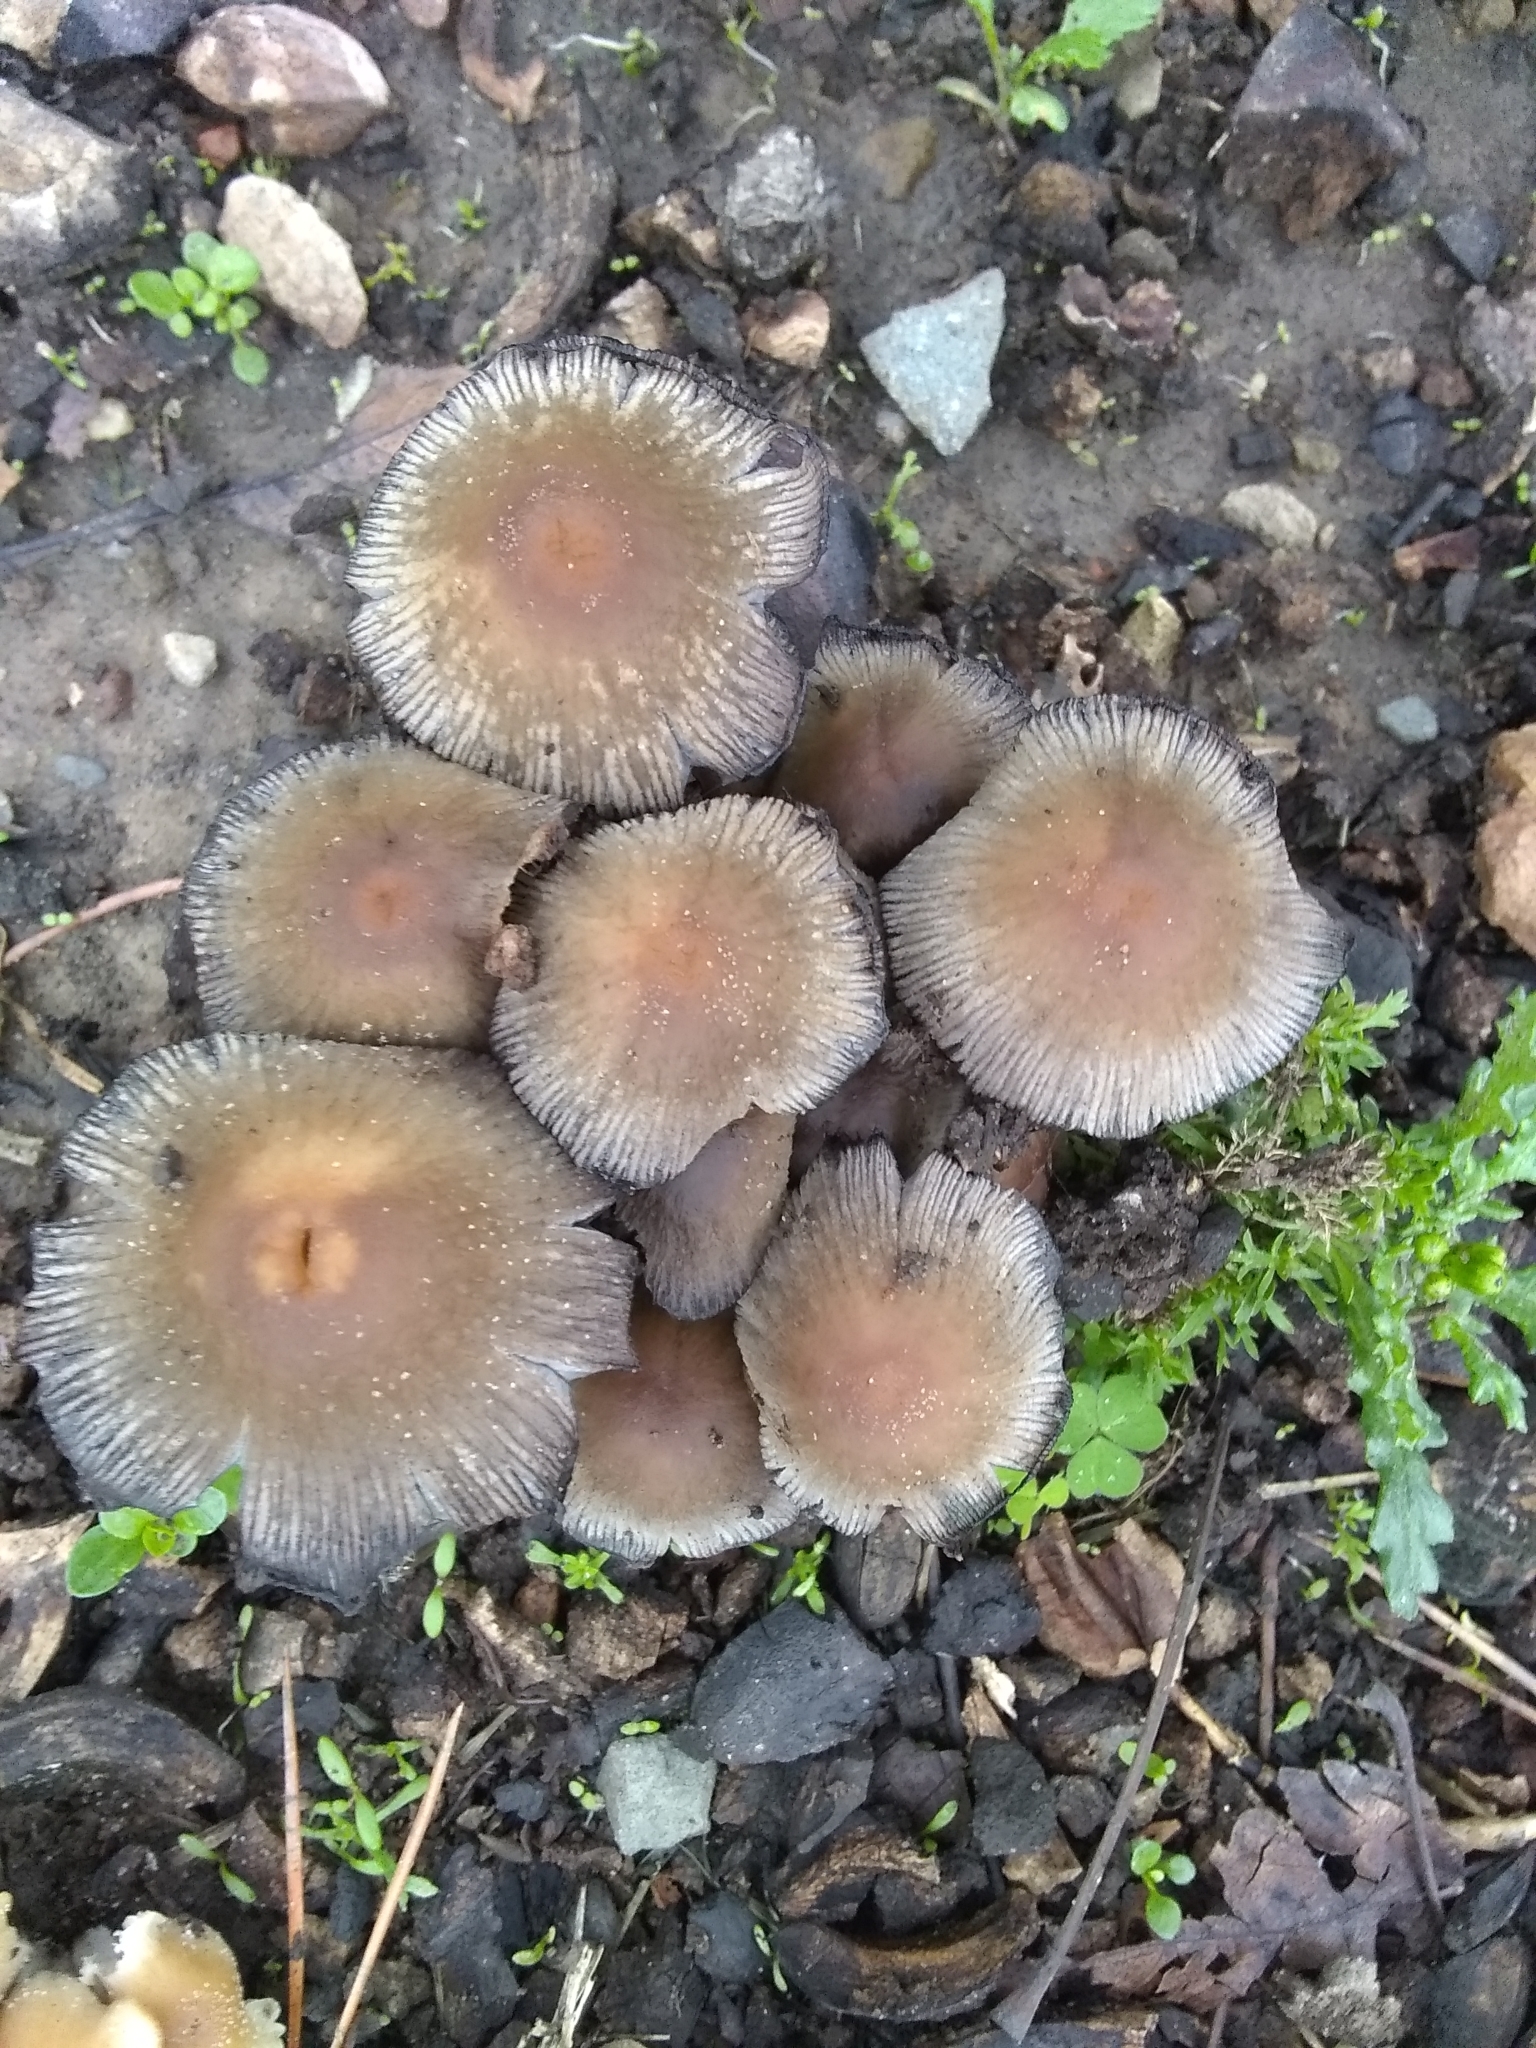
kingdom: Fungi
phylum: Basidiomycota
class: Agaricomycetes
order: Agaricales
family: Psathyrellaceae
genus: Coprinellus
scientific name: Coprinellus micaceus
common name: Glistening ink-cap
